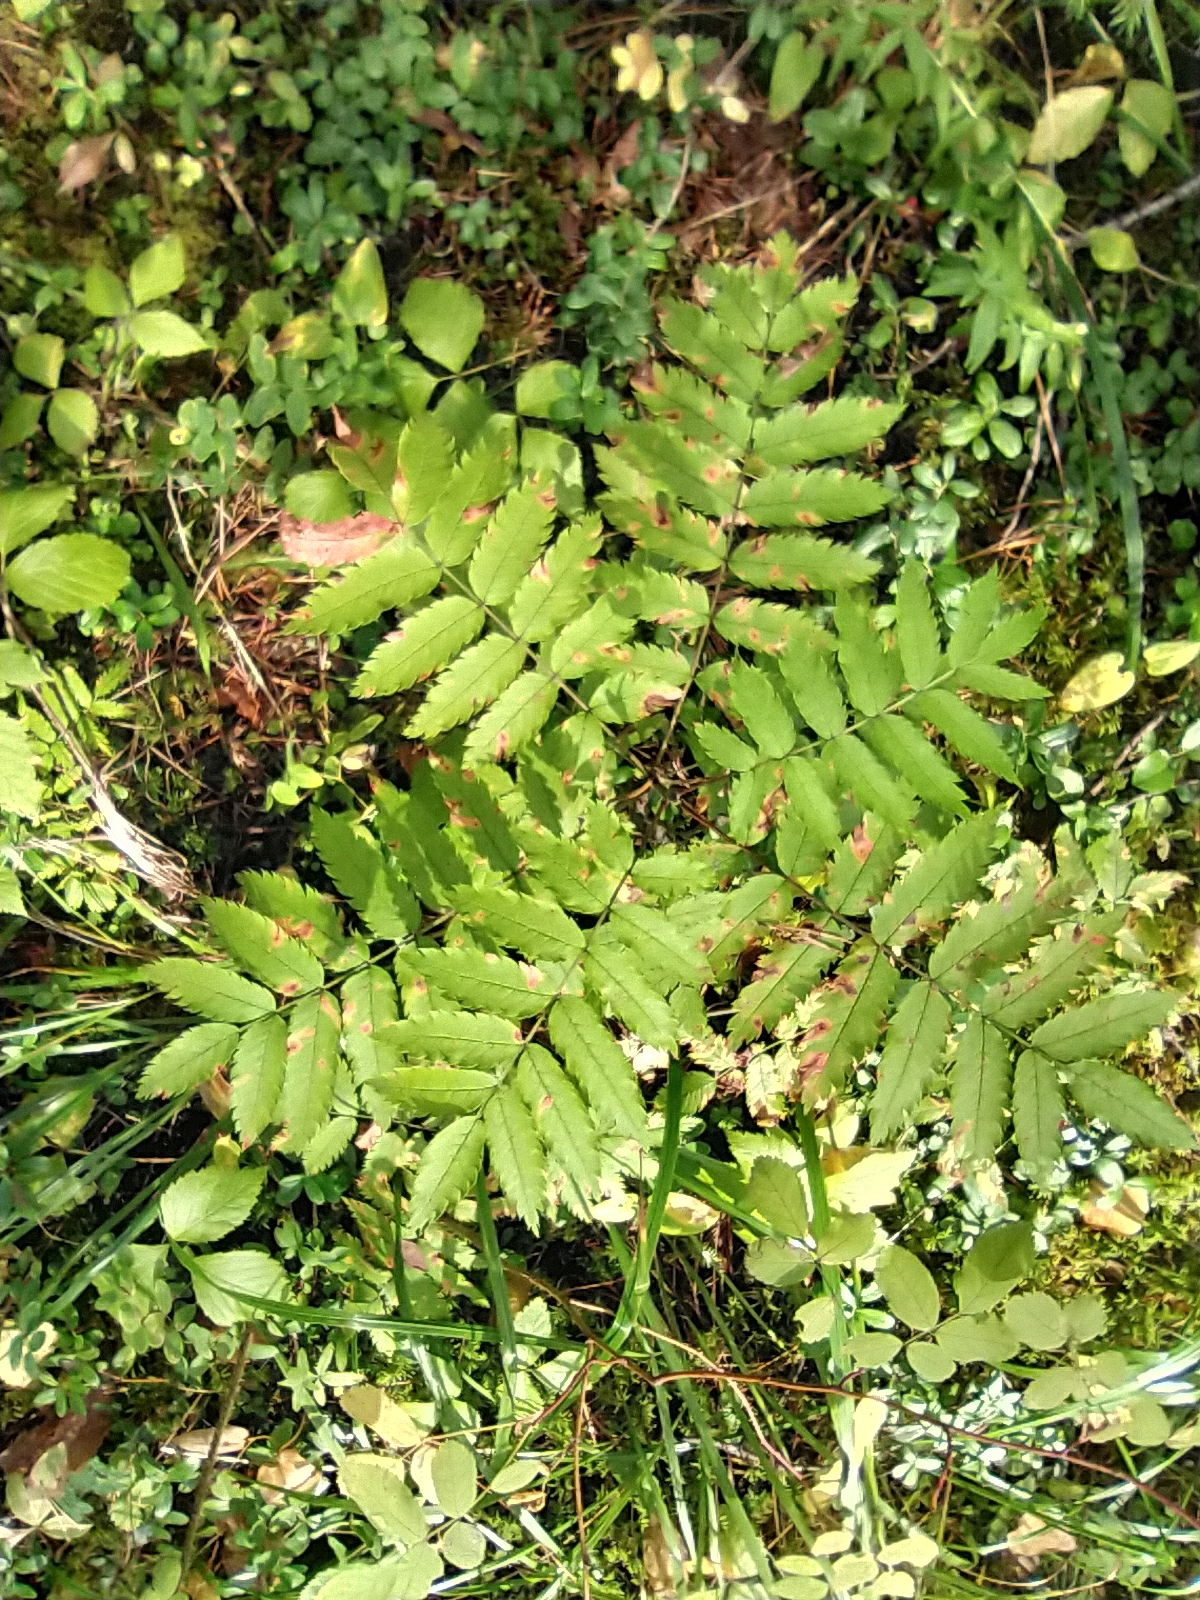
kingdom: Plantae
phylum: Tracheophyta
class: Magnoliopsida
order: Rosales
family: Rosaceae
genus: Sorbus
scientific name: Sorbus aucuparia
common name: Rowan
